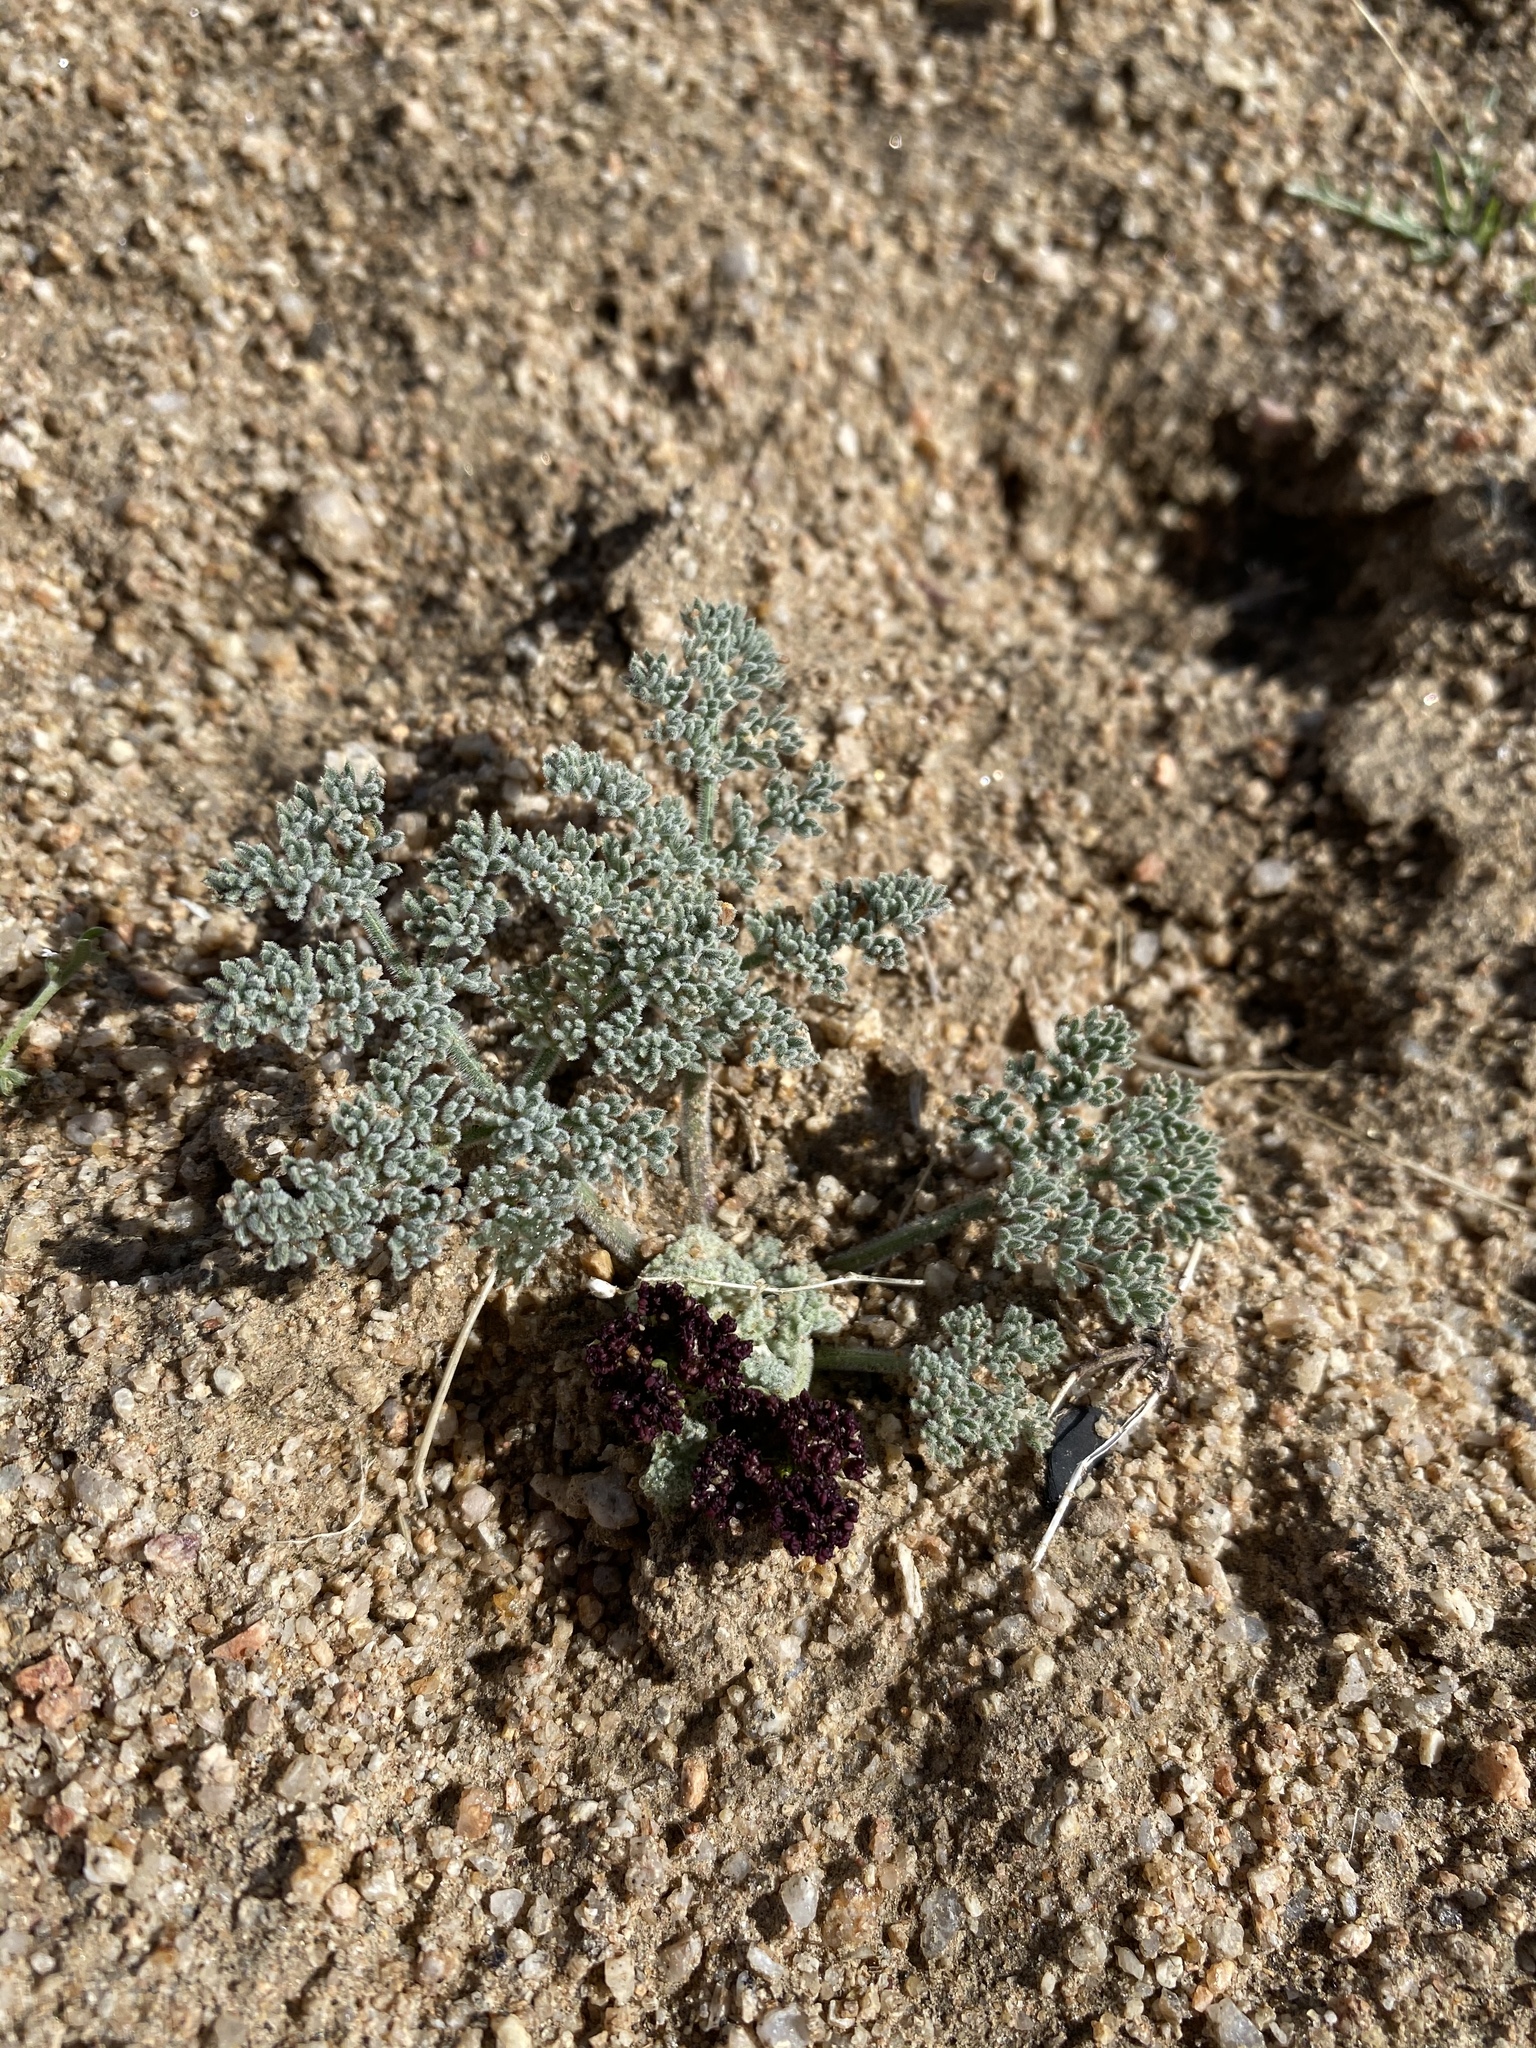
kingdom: Plantae
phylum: Tracheophyta
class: Magnoliopsida
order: Apiales
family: Apiaceae
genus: Lomatium
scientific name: Lomatium mohavense
